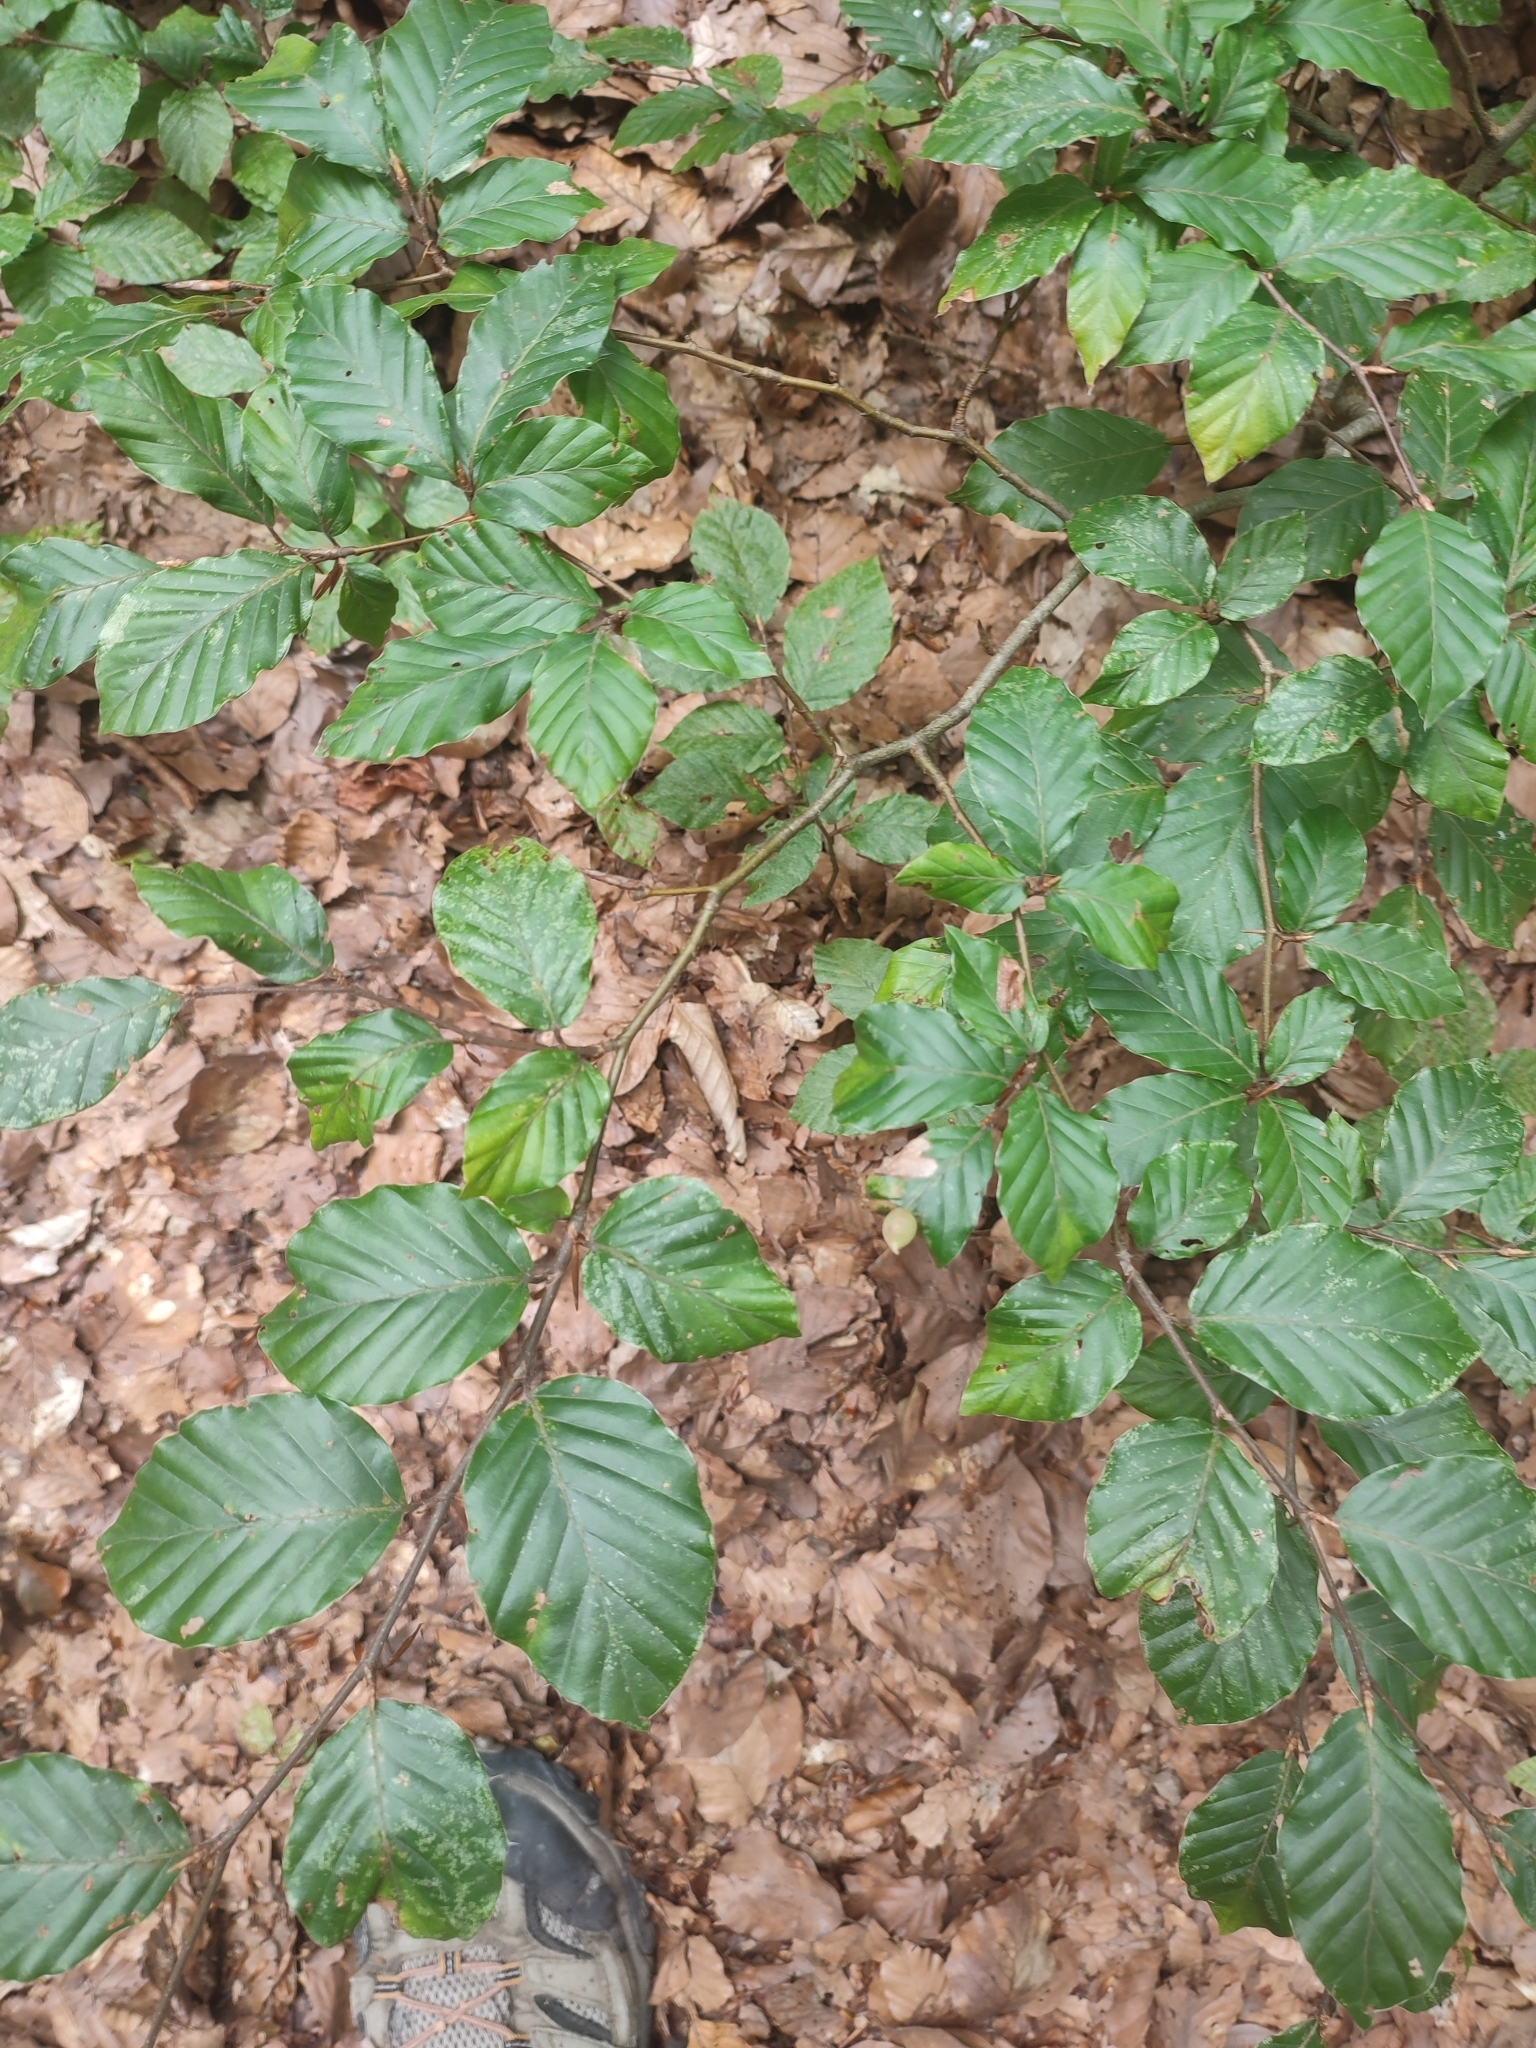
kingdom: Plantae
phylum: Tracheophyta
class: Magnoliopsida
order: Fagales
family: Fagaceae
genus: Fagus
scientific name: Fagus sylvatica
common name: Beech
